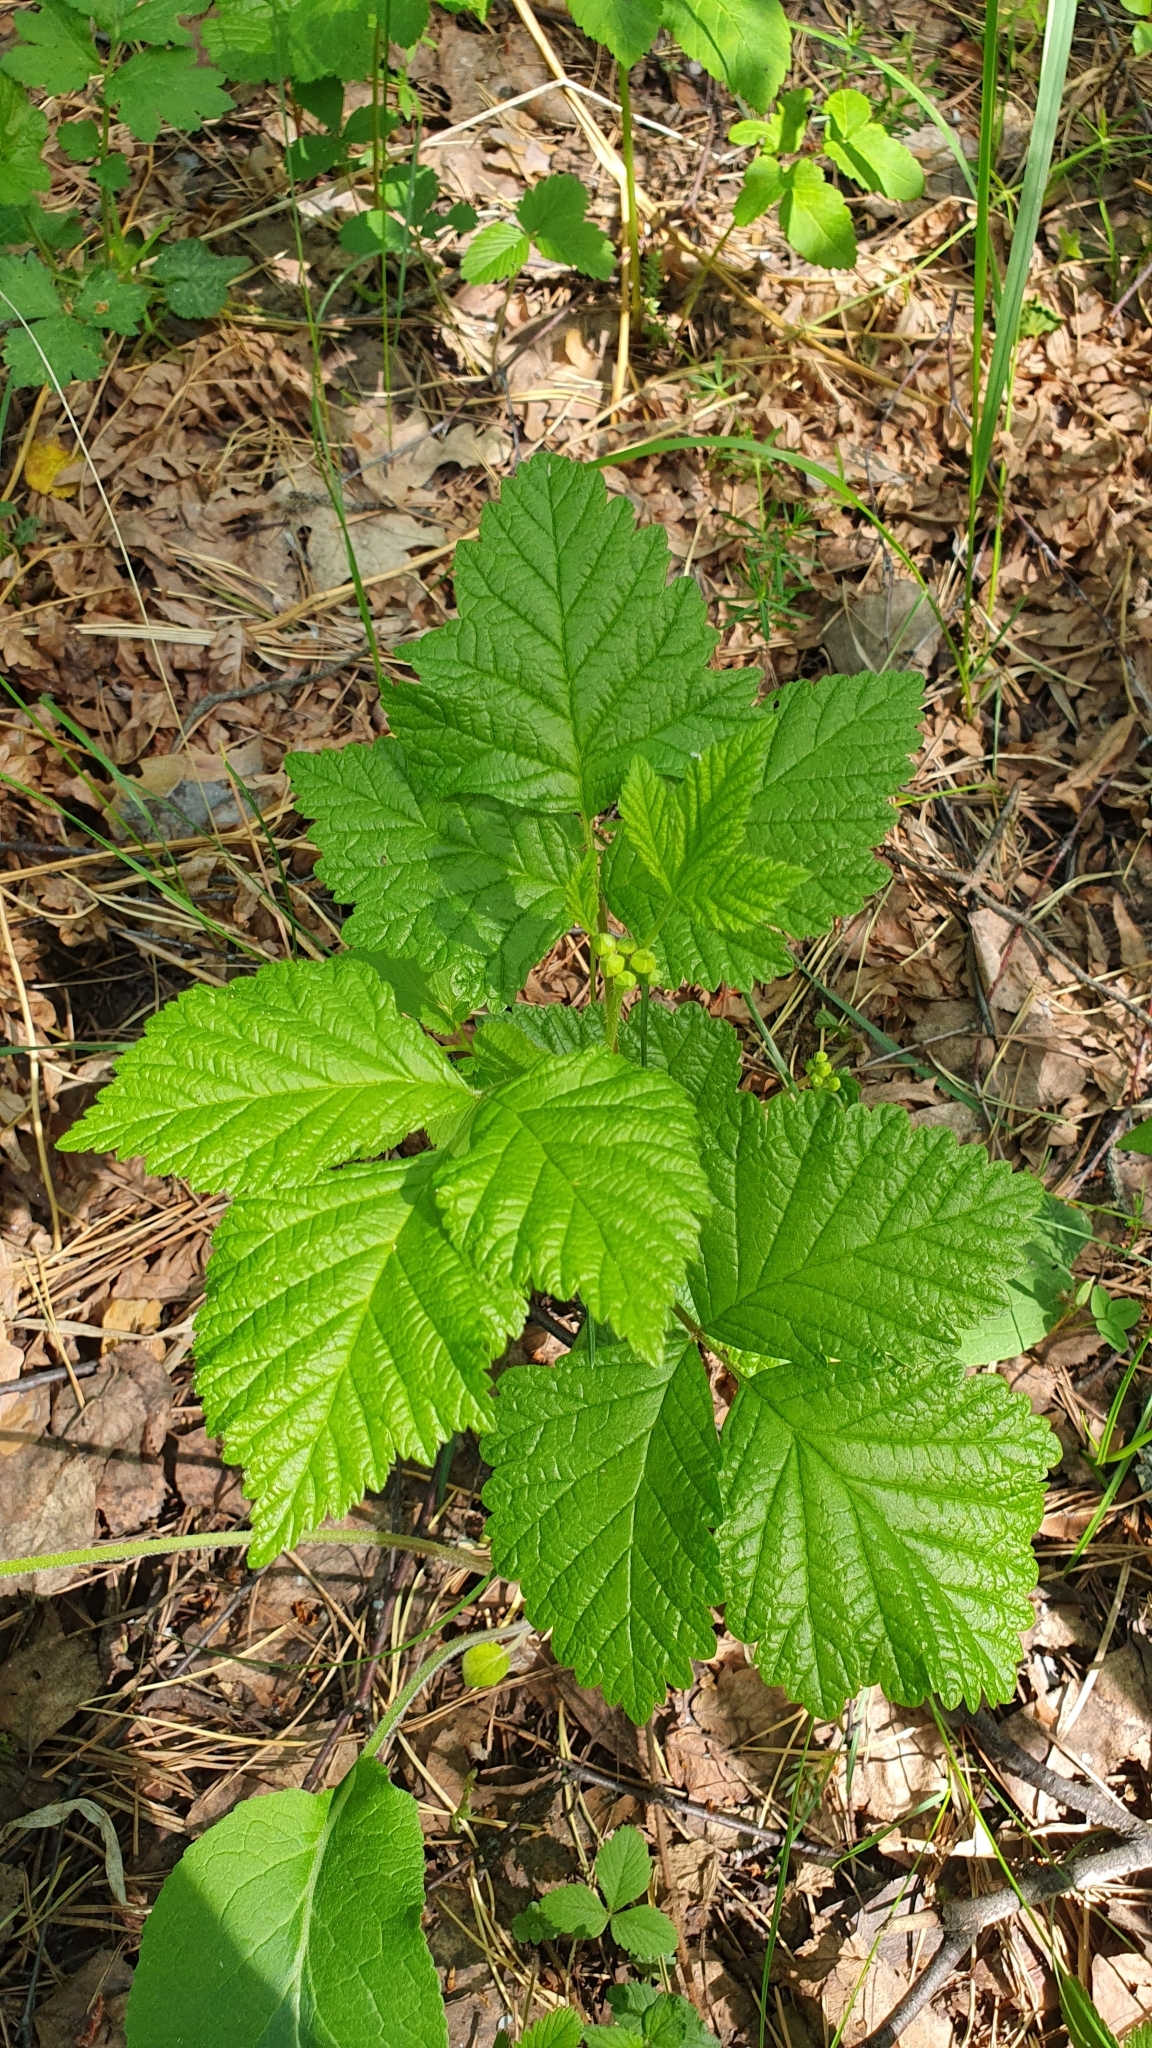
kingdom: Plantae
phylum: Tracheophyta
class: Magnoliopsida
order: Rosales
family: Rosaceae
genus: Rubus
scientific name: Rubus saxatilis
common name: Stone bramble
